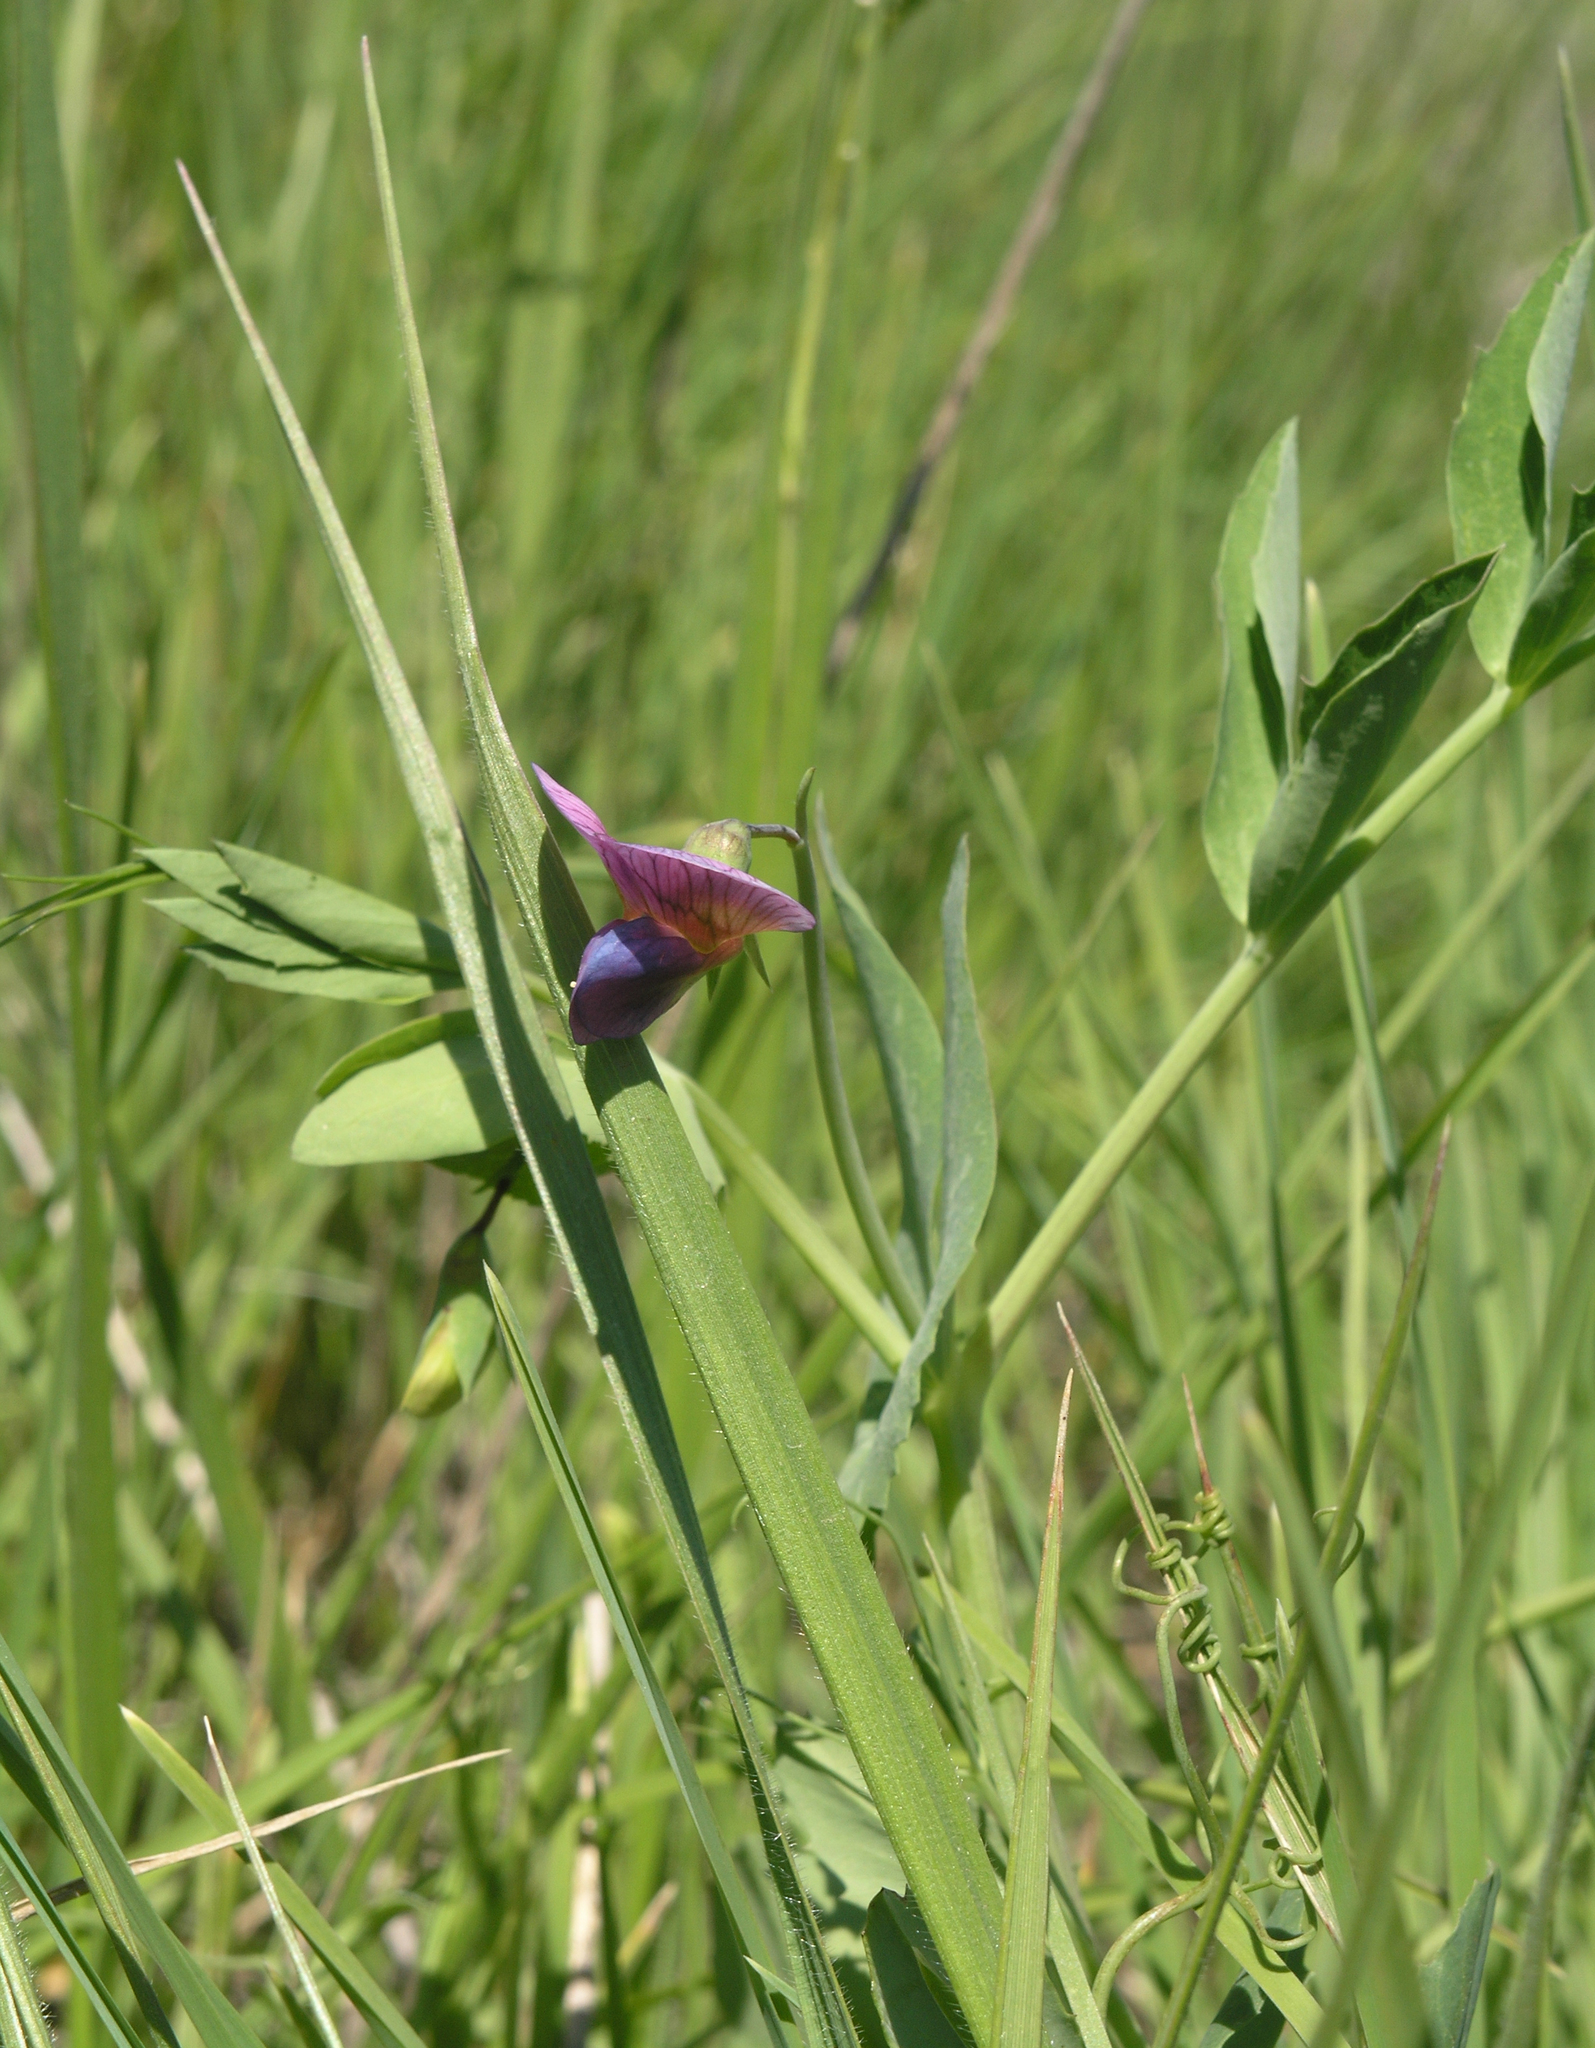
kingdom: Plantae
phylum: Tracheophyta
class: Magnoliopsida
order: Fabales
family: Fabaceae
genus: Lathyrus
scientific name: Lathyrus oleraceus
